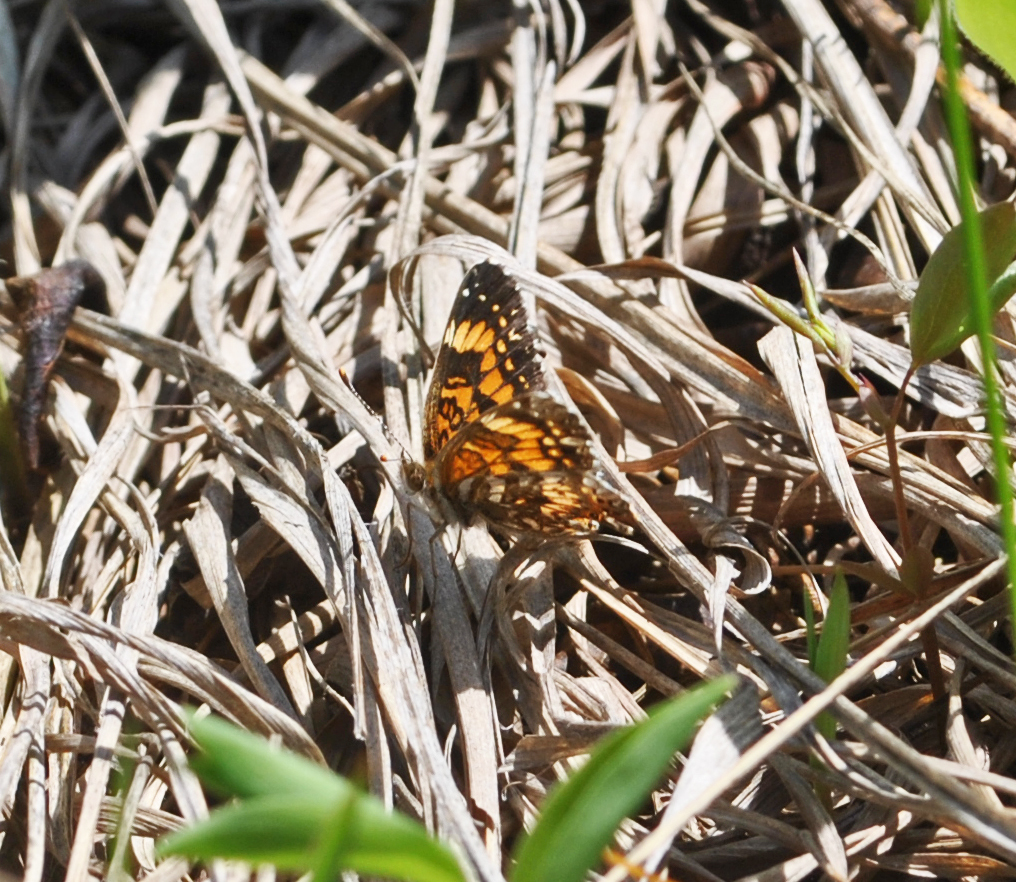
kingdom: Animalia
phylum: Arthropoda
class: Insecta
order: Lepidoptera
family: Nymphalidae
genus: Chlosyne
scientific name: Chlosyne gorgone
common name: Gorgone checkerspot
